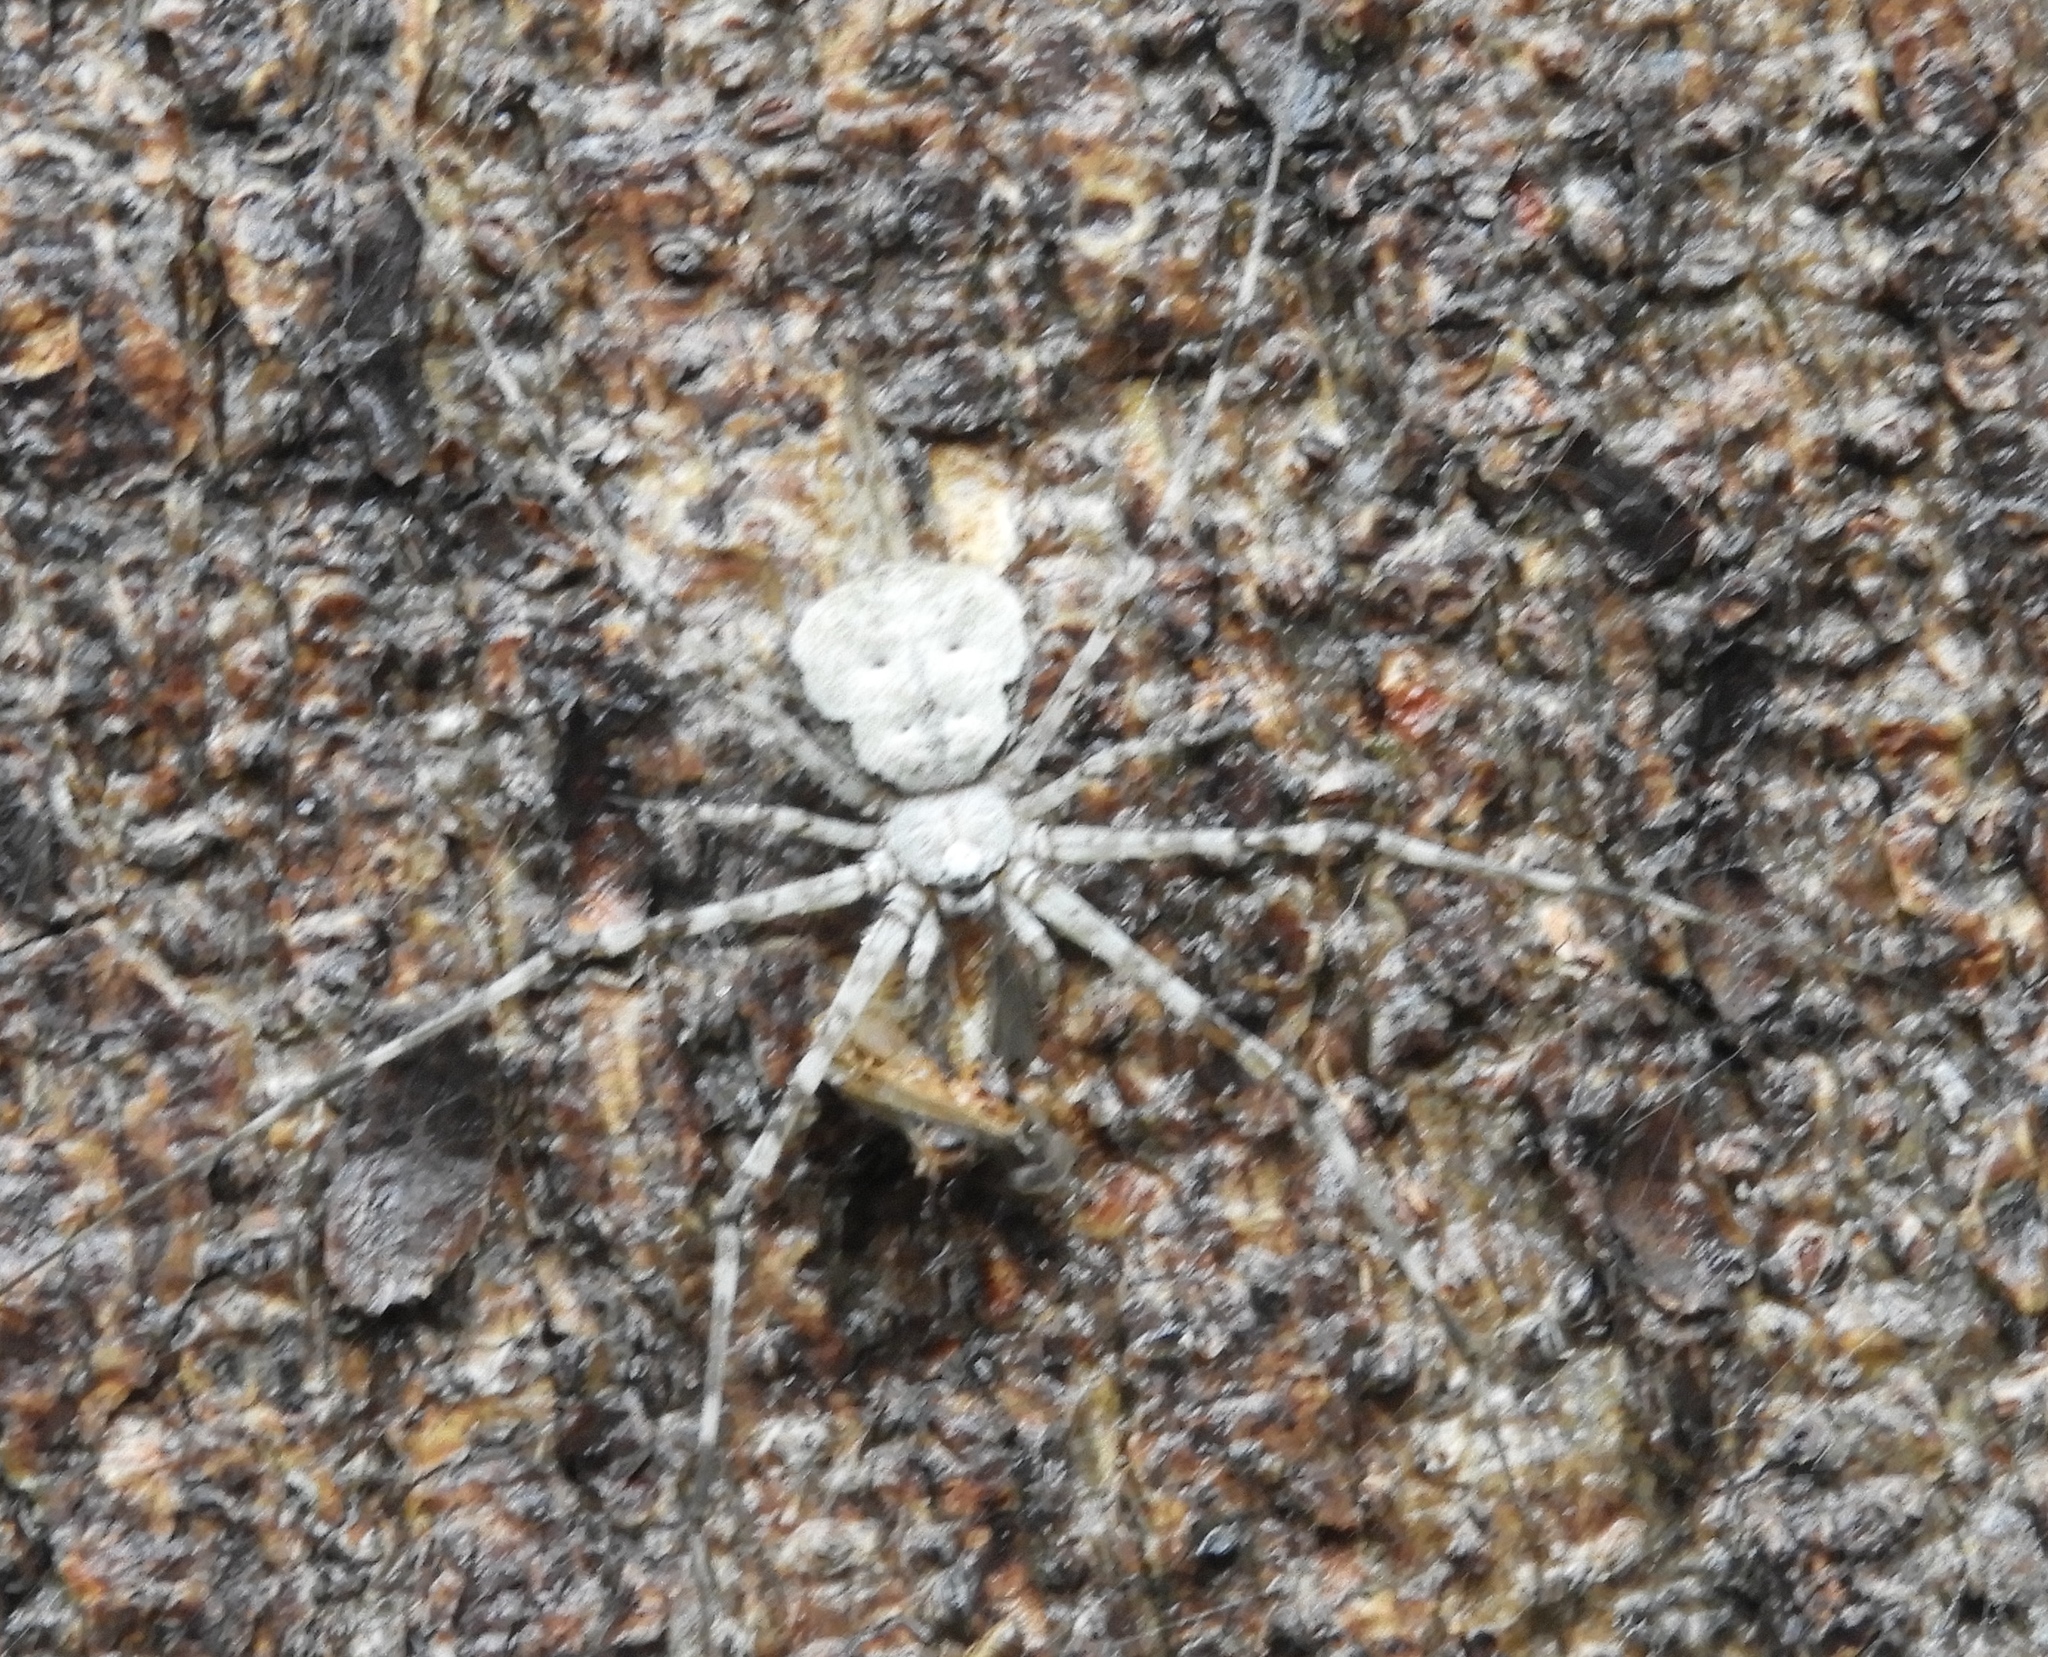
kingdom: Animalia
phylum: Arthropoda
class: Arachnida
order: Araneae
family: Hersiliidae
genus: Neotama
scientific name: Neotama
